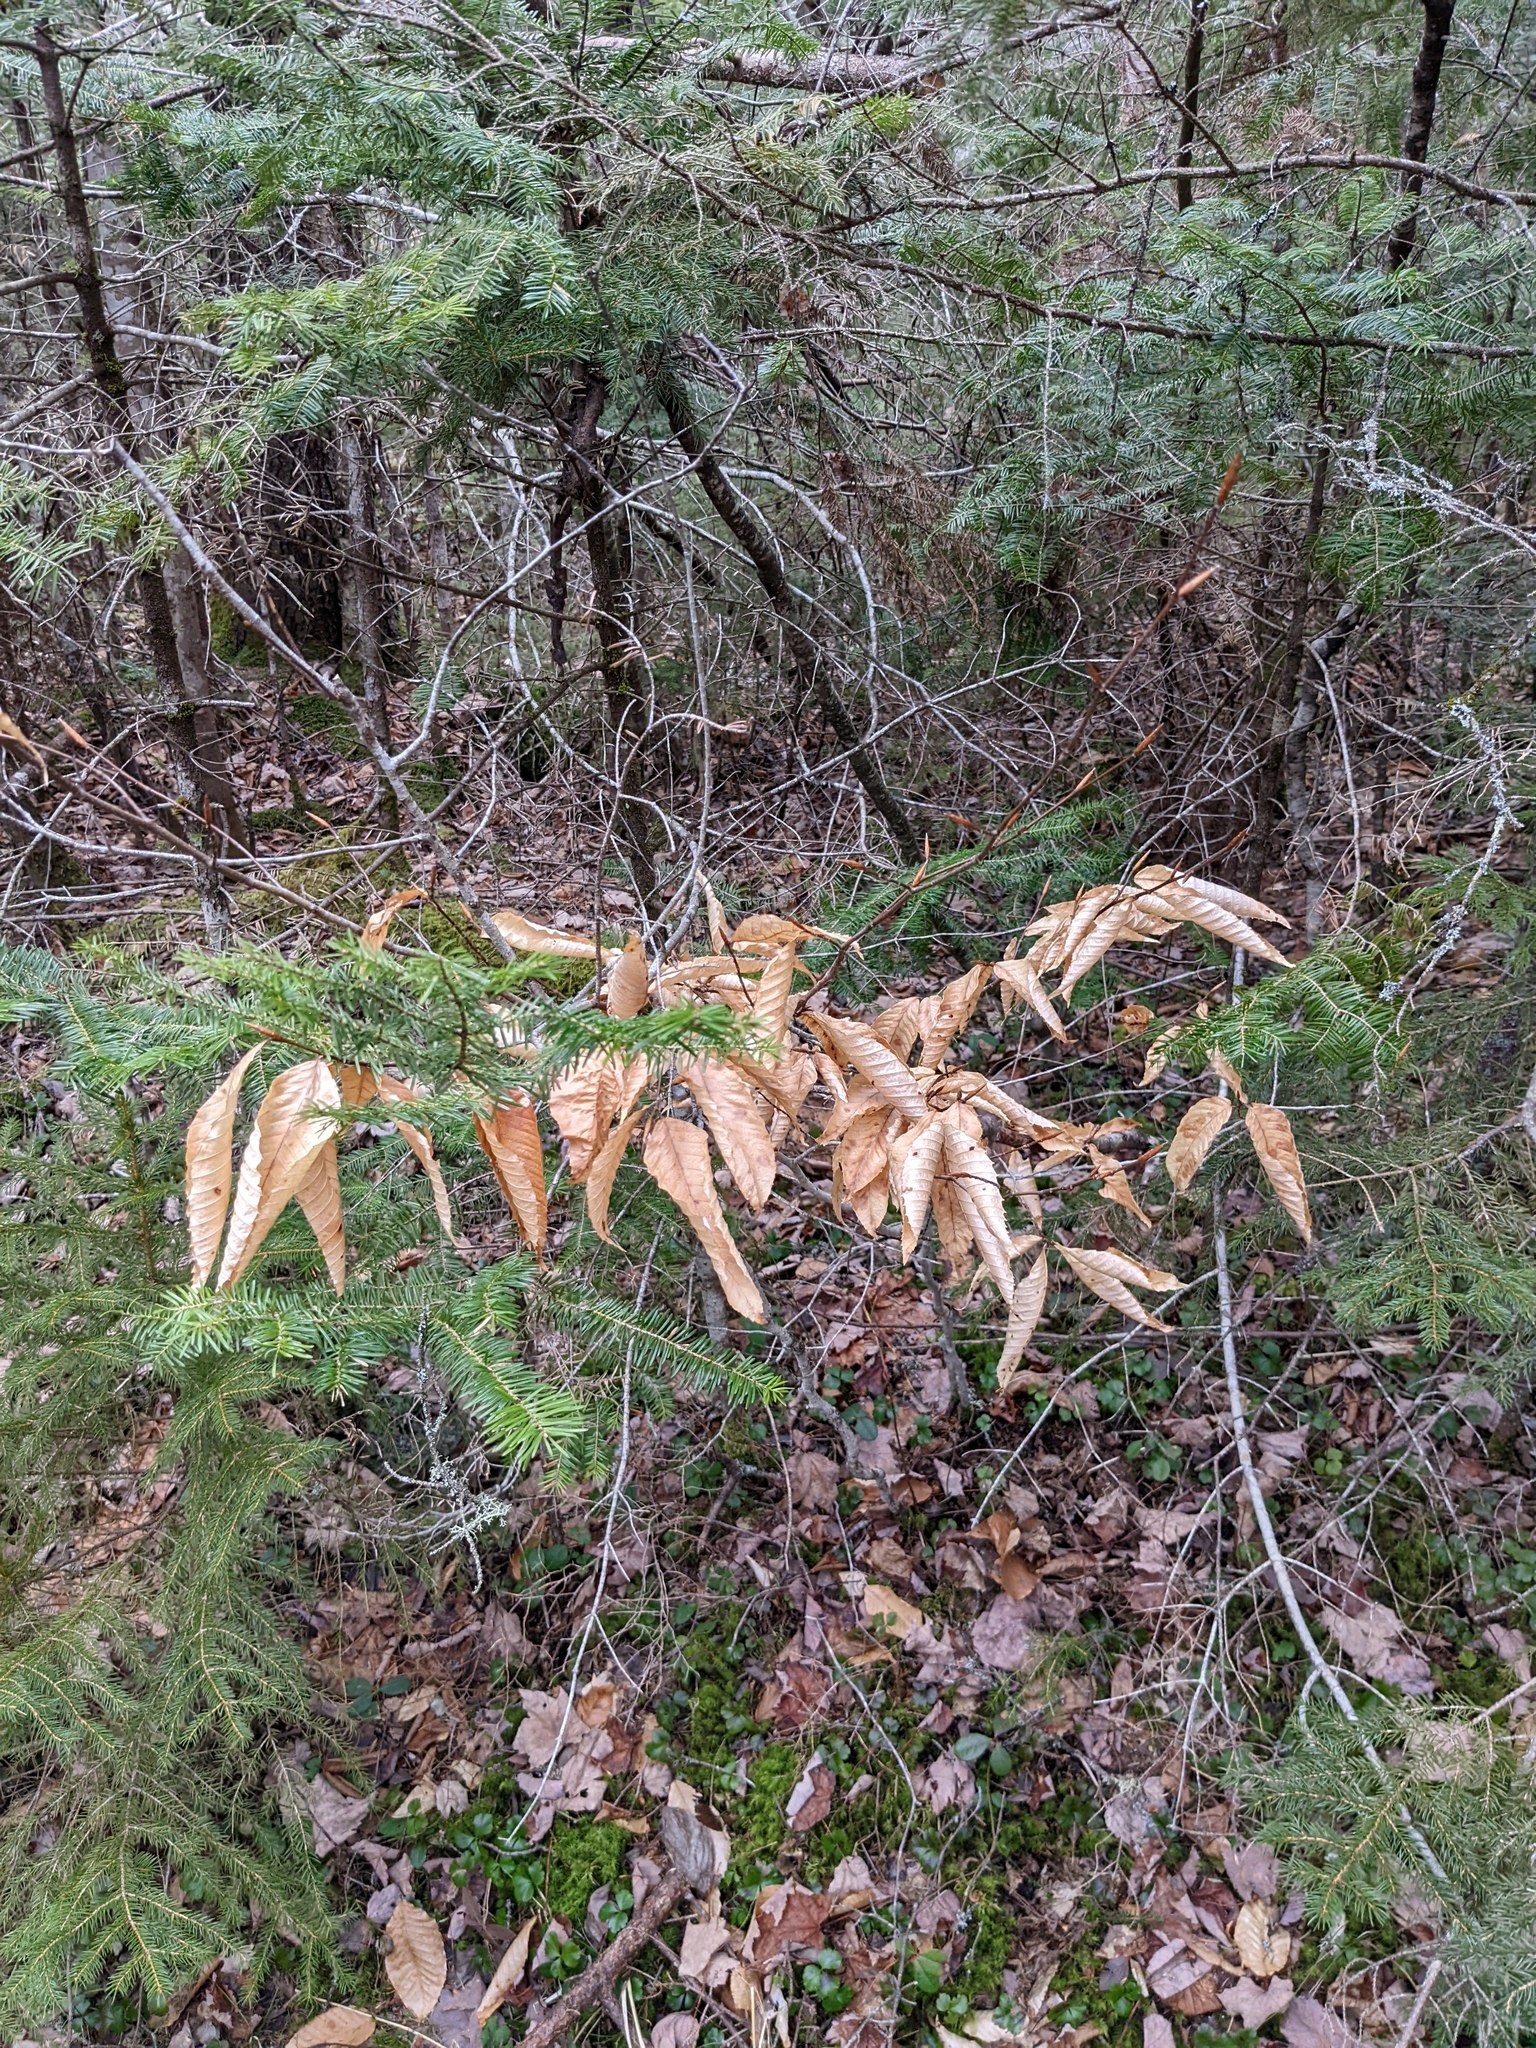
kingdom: Plantae
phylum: Tracheophyta
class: Magnoliopsida
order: Fagales
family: Fagaceae
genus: Fagus
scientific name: Fagus grandifolia
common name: American beech
